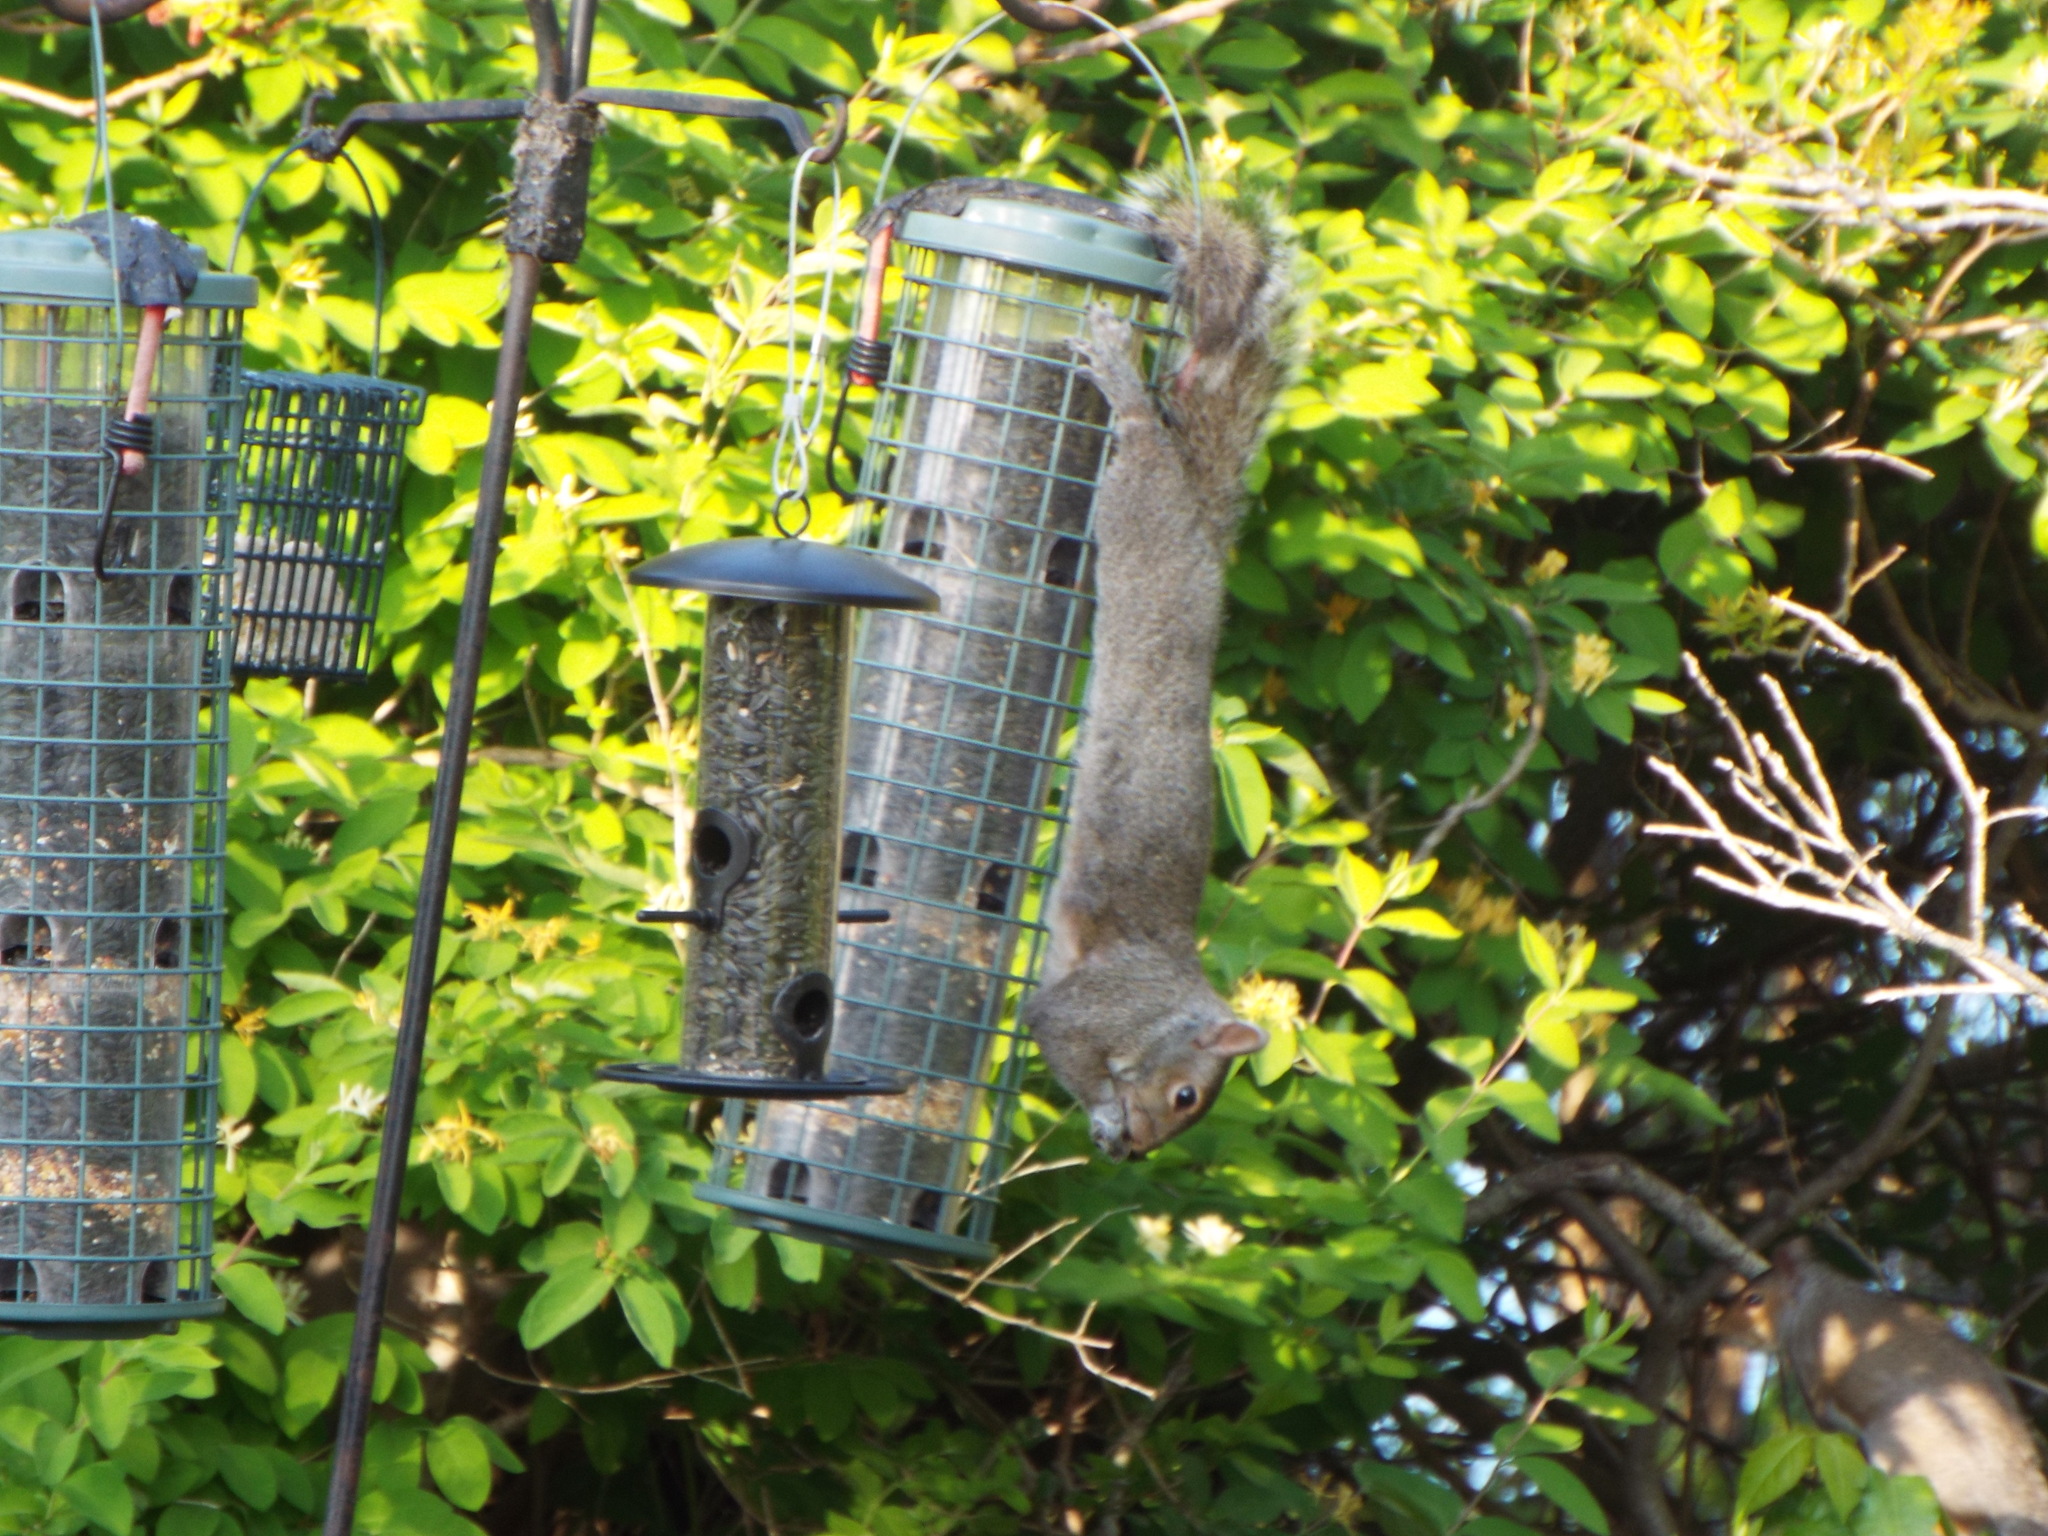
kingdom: Animalia
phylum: Chordata
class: Mammalia
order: Rodentia
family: Sciuridae
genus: Sciurus
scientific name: Sciurus carolinensis
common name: Eastern gray squirrel
